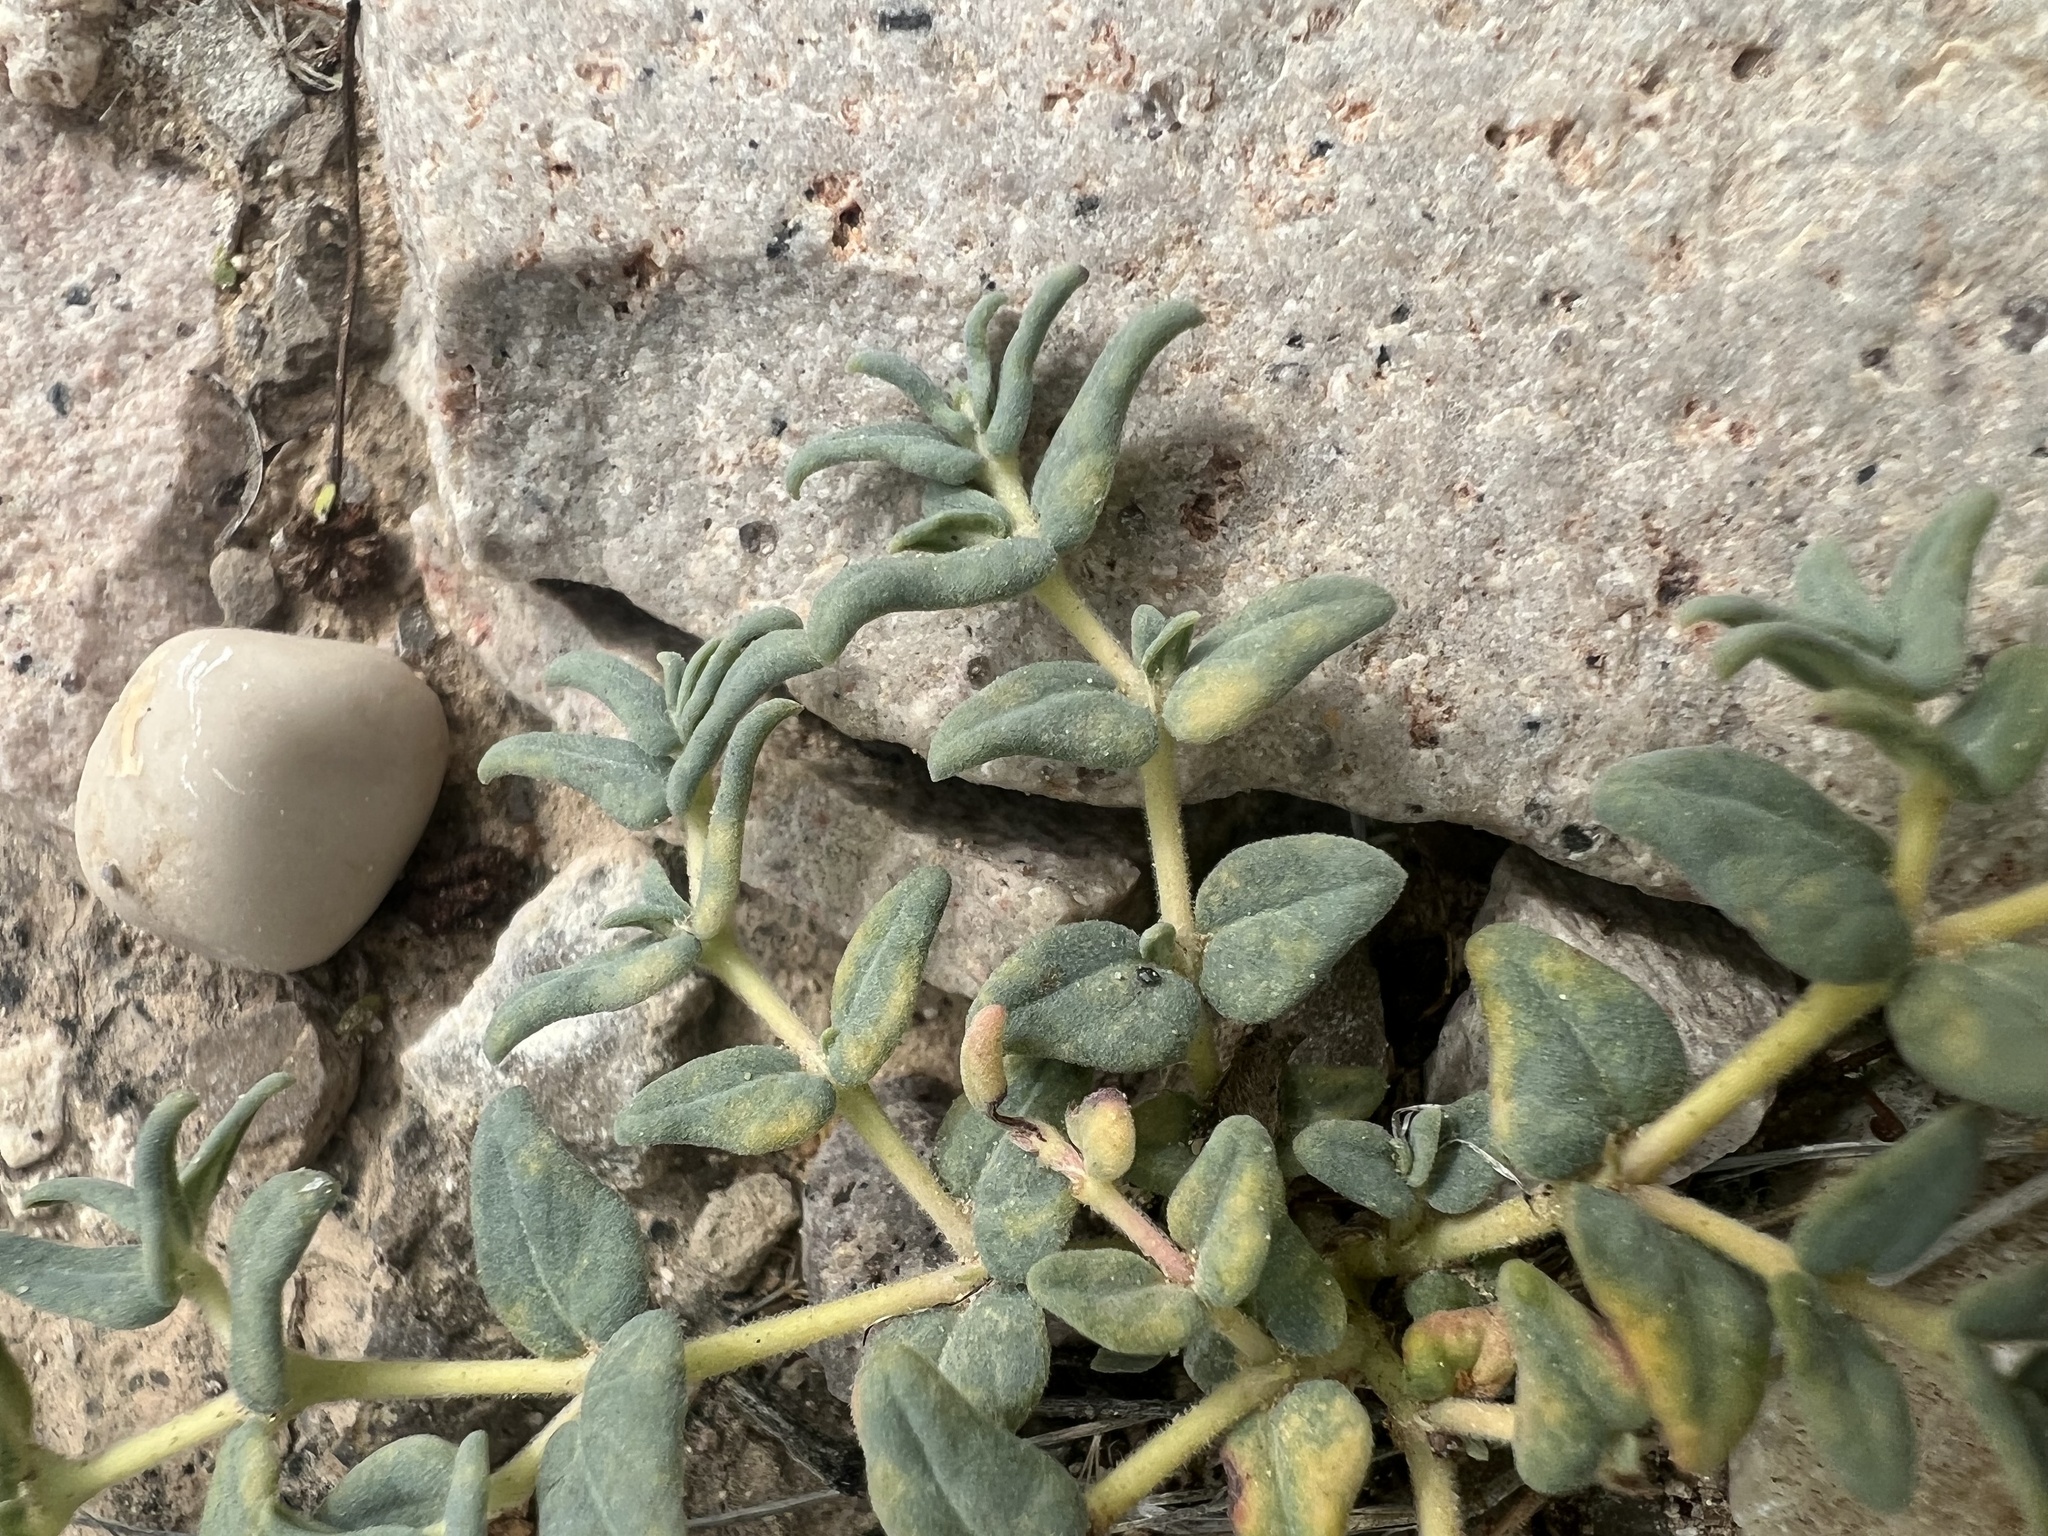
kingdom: Plantae
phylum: Tracheophyta
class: Magnoliopsida
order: Malpighiales
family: Euphorbiaceae
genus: Euphorbia
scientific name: Euphorbia lata
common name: Hoary euphorbia
